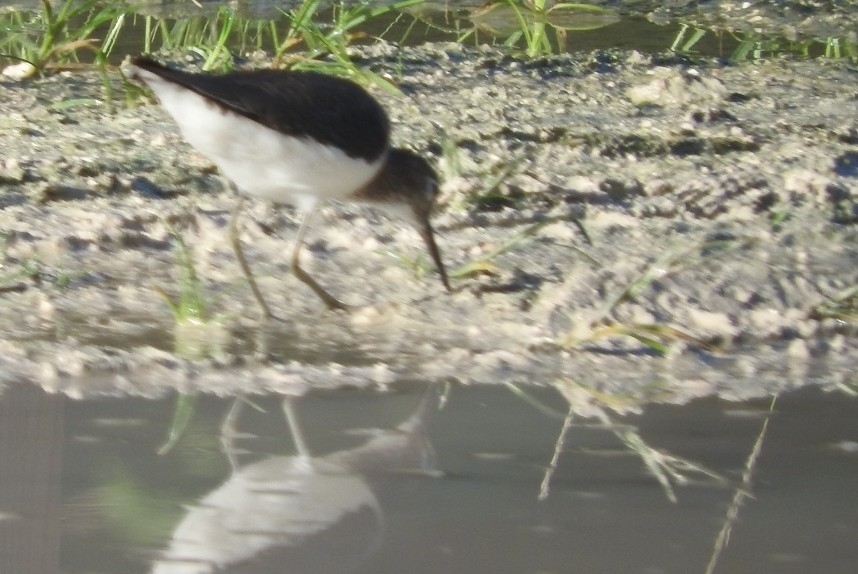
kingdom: Animalia
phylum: Chordata
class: Aves
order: Charadriiformes
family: Scolopacidae
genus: Tringa
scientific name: Tringa solitaria
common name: Solitary sandpiper
